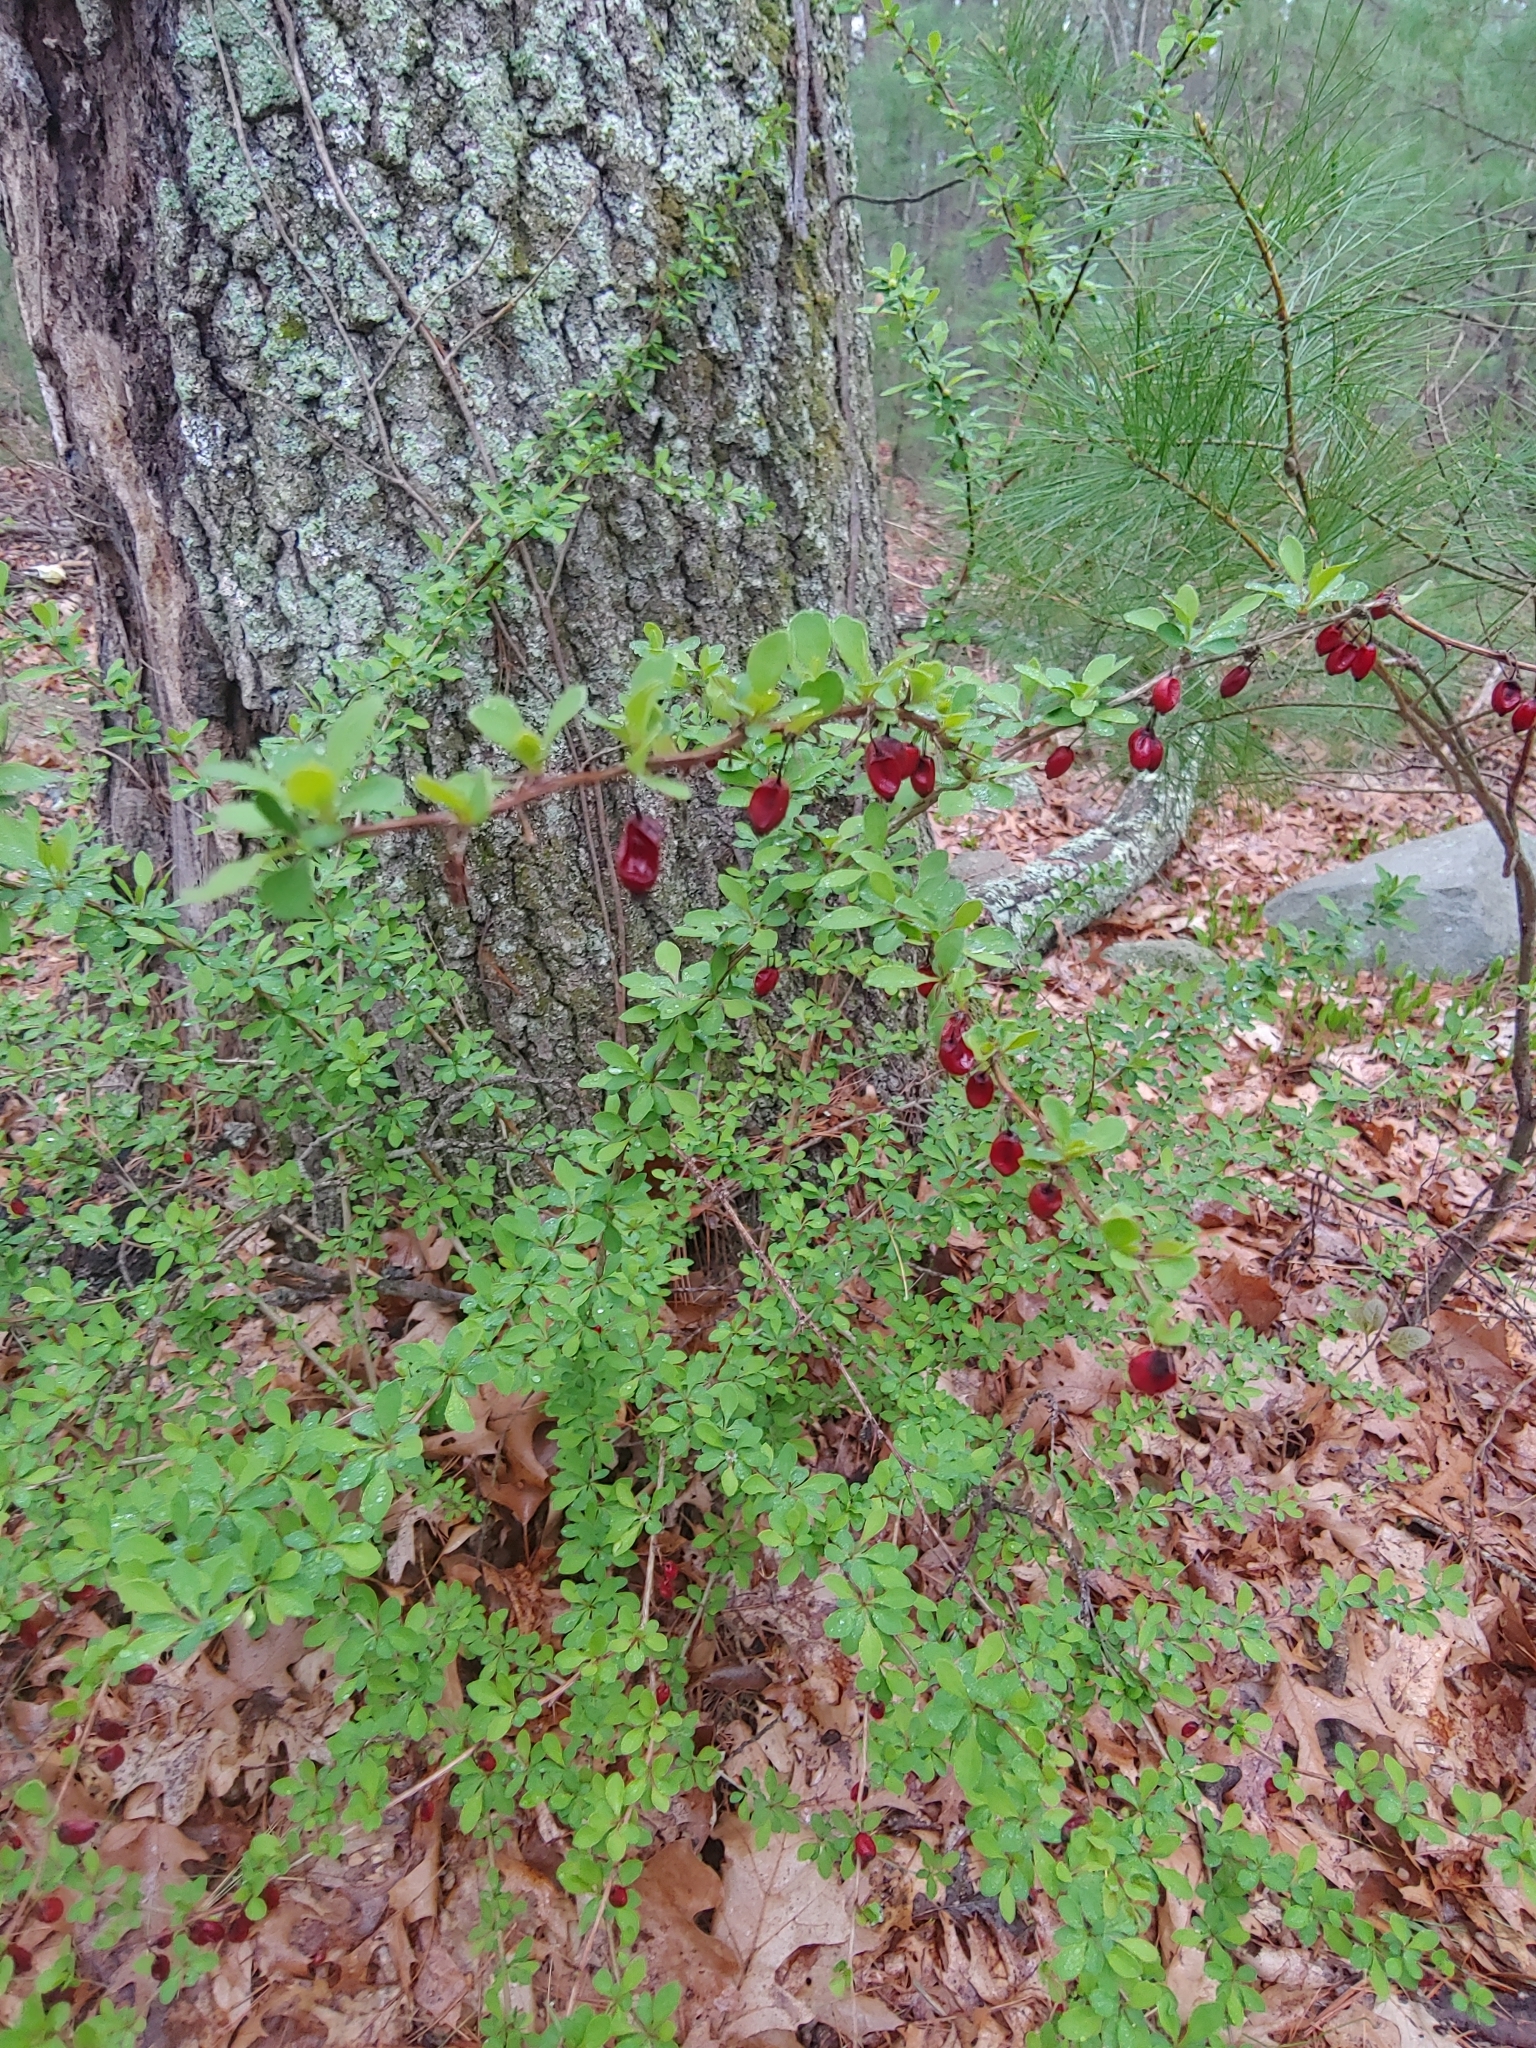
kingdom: Plantae
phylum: Tracheophyta
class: Magnoliopsida
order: Ranunculales
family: Berberidaceae
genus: Berberis
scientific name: Berberis thunbergii
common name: Japanese barberry
